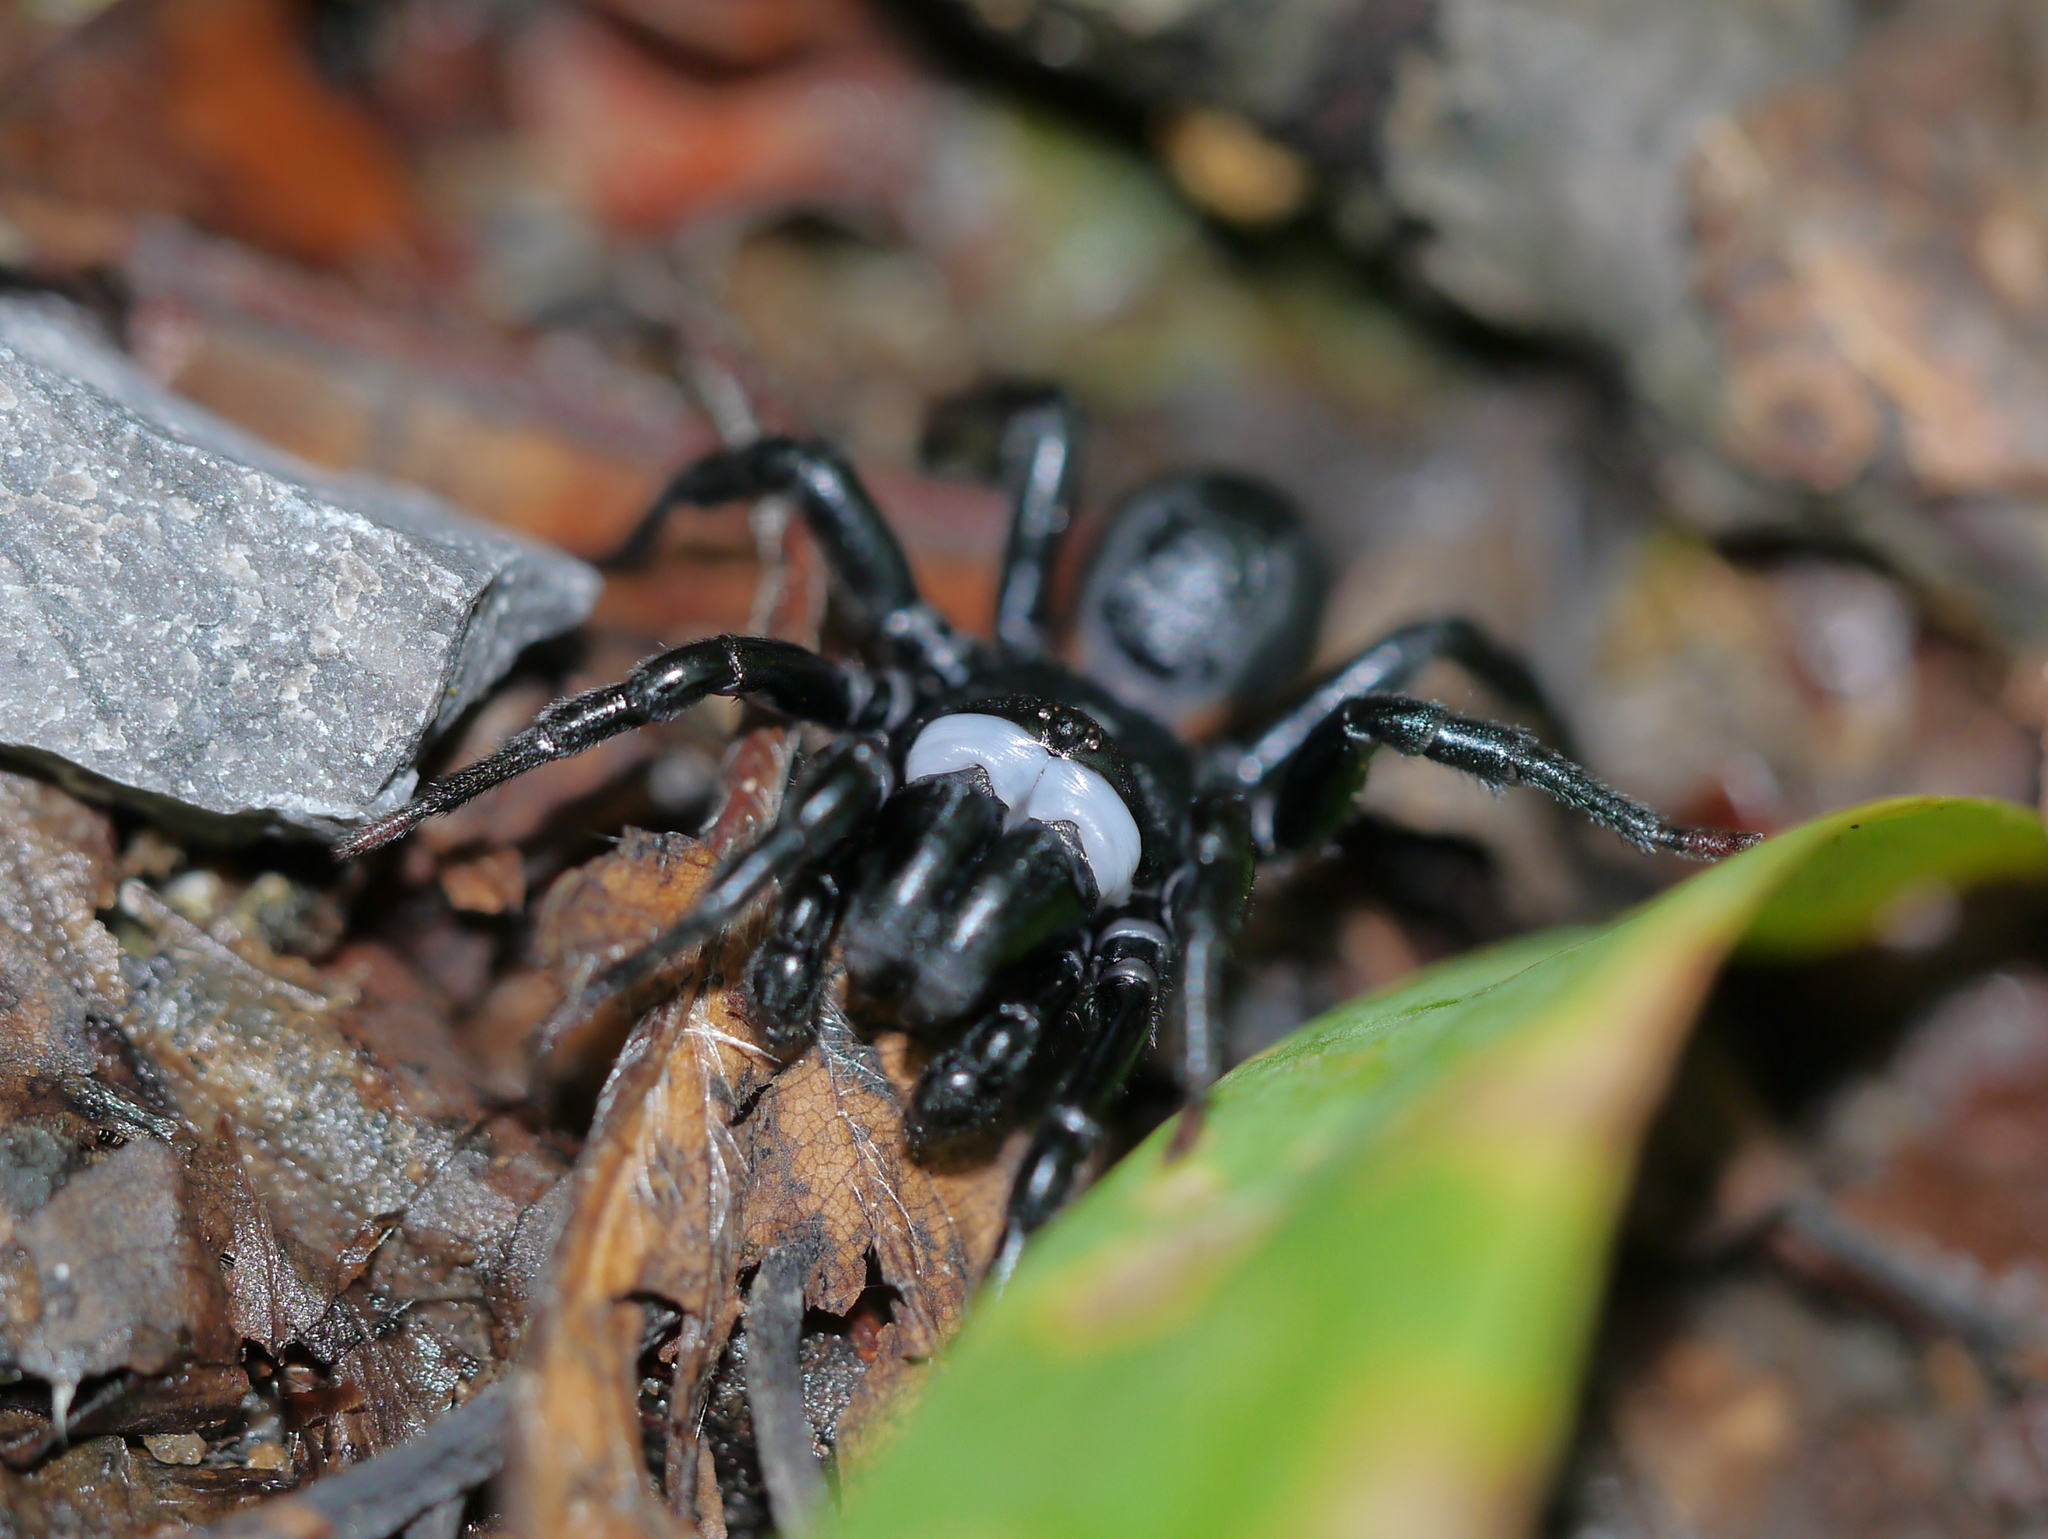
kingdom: Animalia
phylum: Arthropoda
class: Arachnida
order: Araneae
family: Atypidae
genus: Sphodros
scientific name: Sphodros niger
